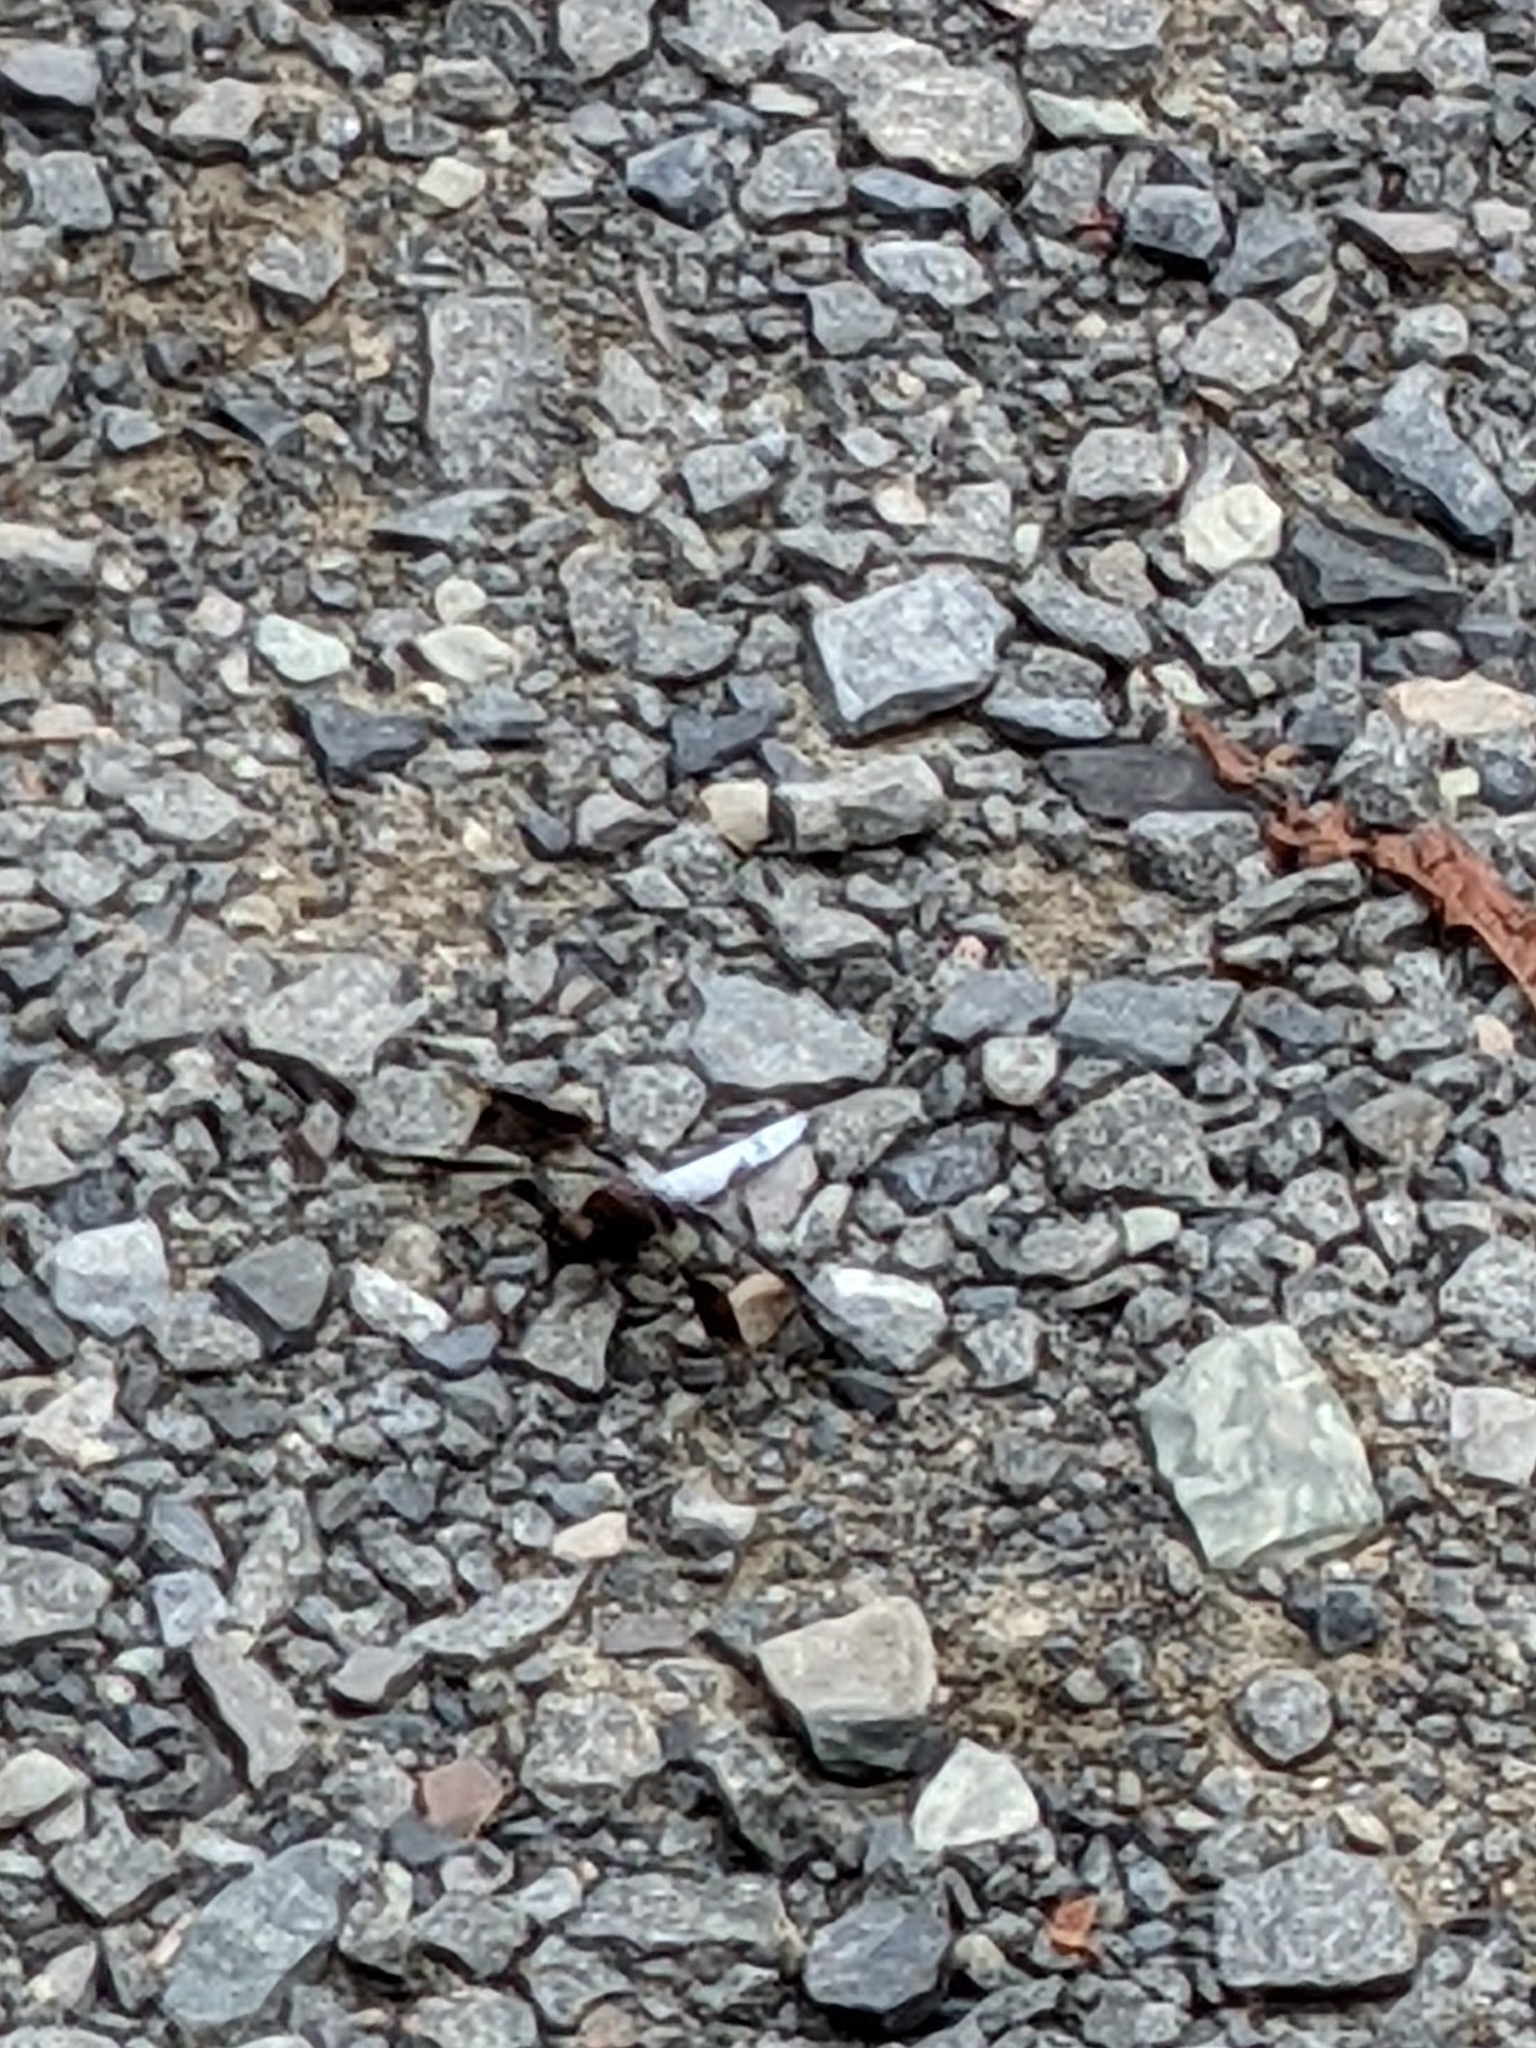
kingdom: Animalia
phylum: Arthropoda
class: Insecta
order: Odonata
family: Libellulidae
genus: Plathemis
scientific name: Plathemis lydia
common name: Common whitetail
